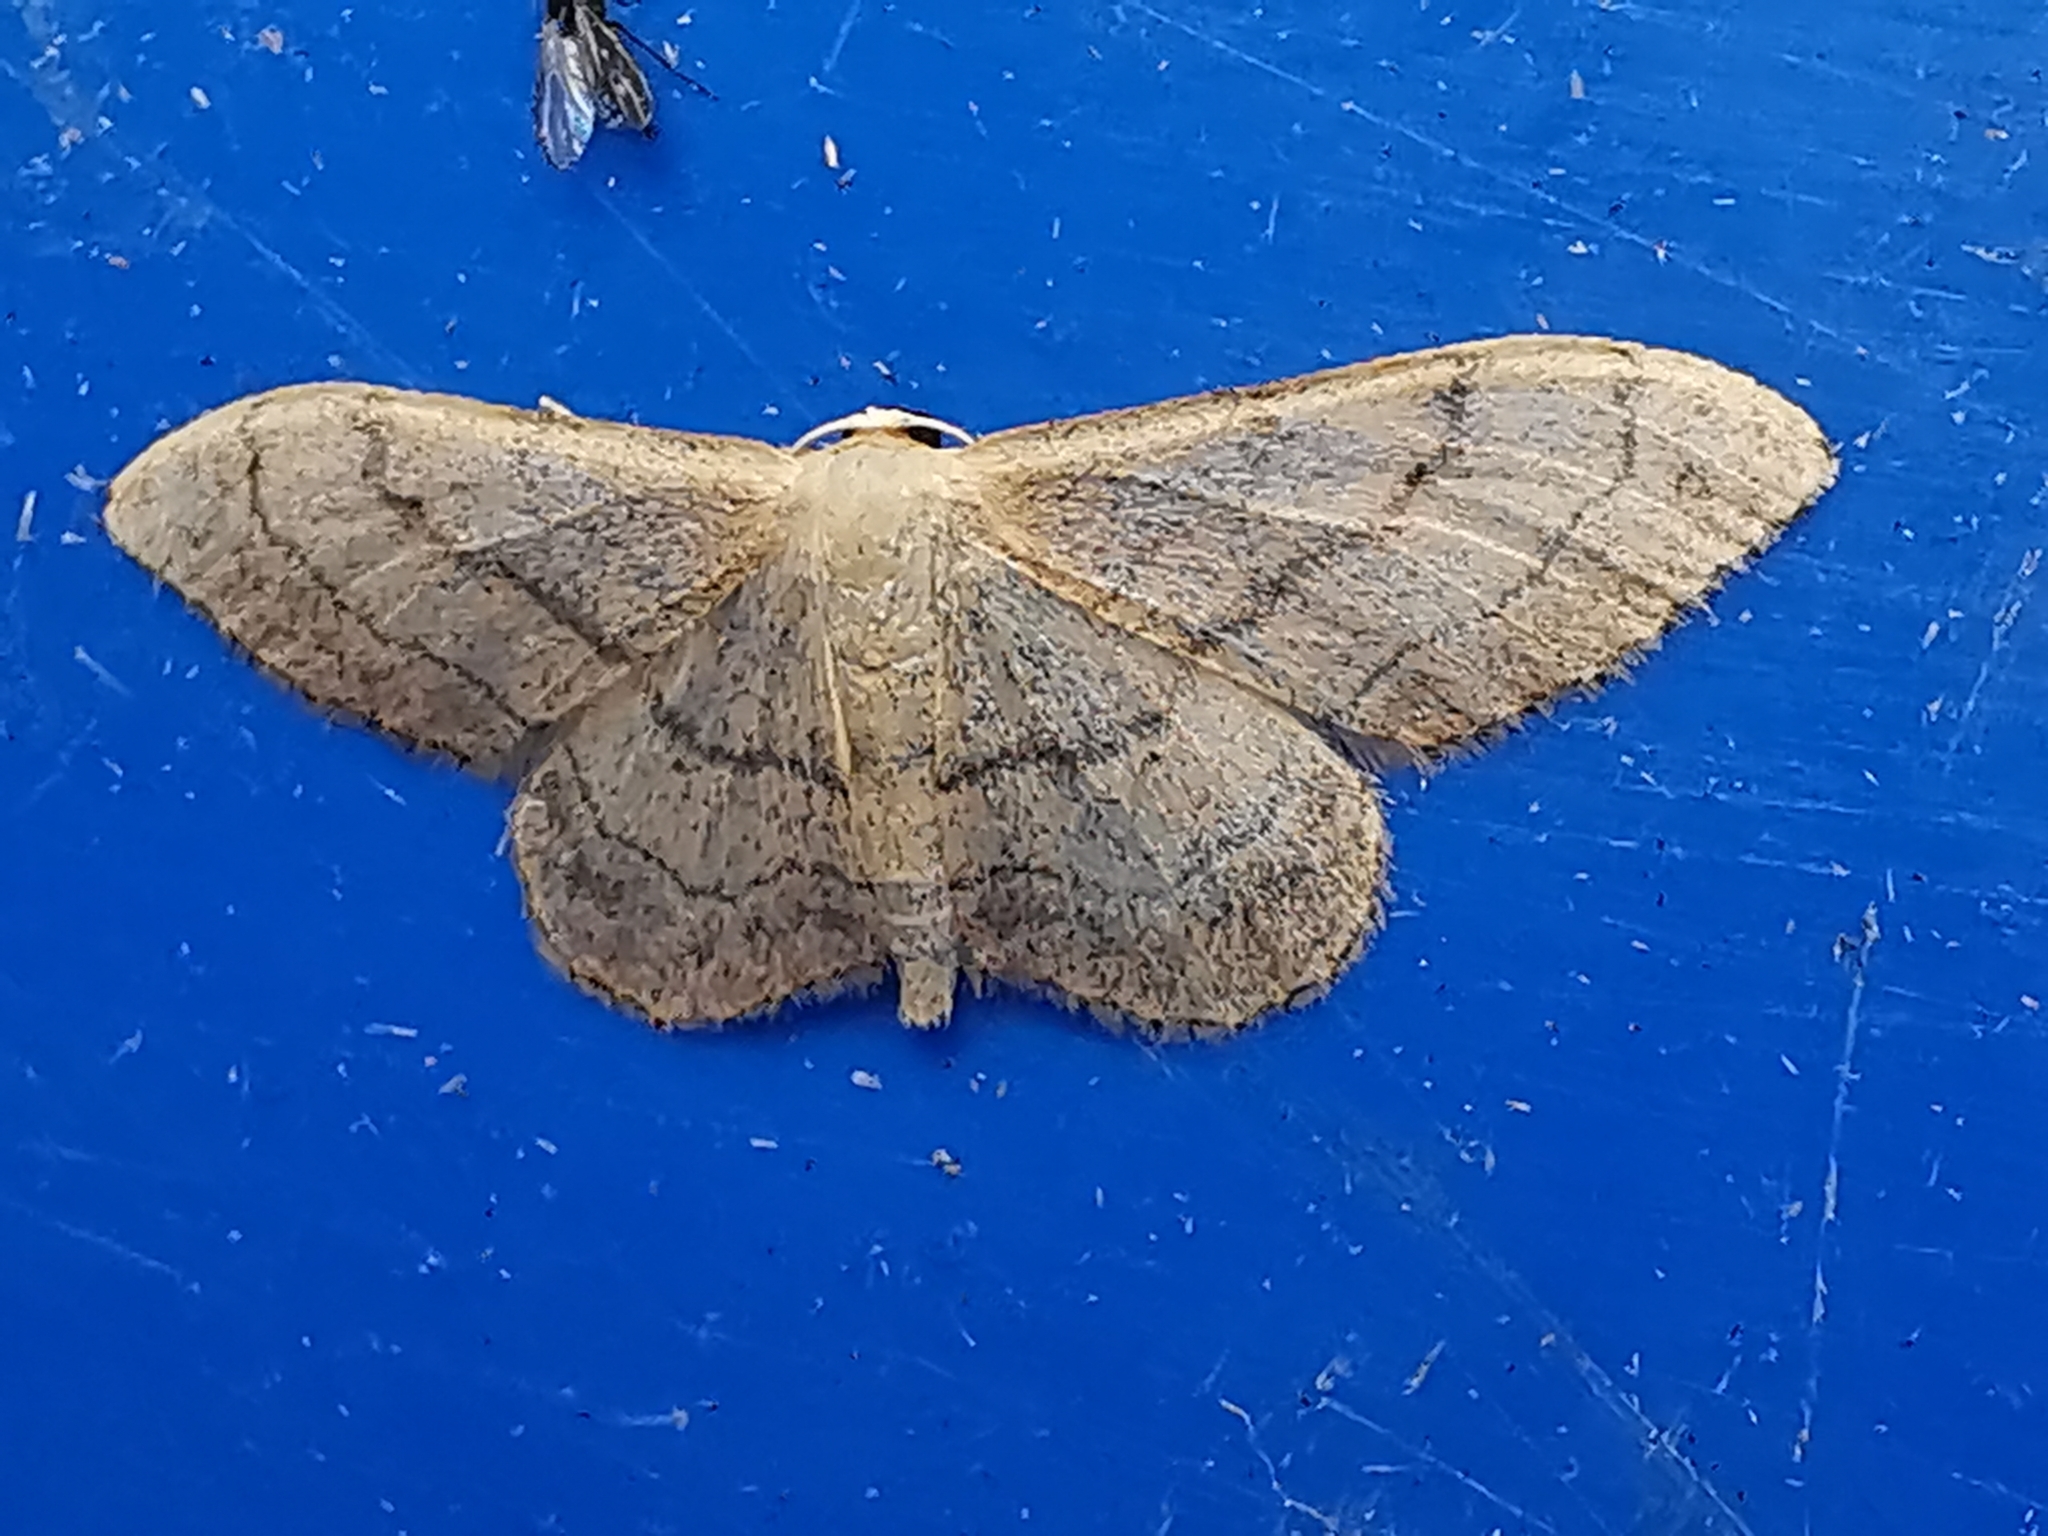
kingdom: Animalia
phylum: Arthropoda
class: Insecta
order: Lepidoptera
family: Geometridae
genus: Idaea
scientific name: Idaea aversata
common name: Riband wave
